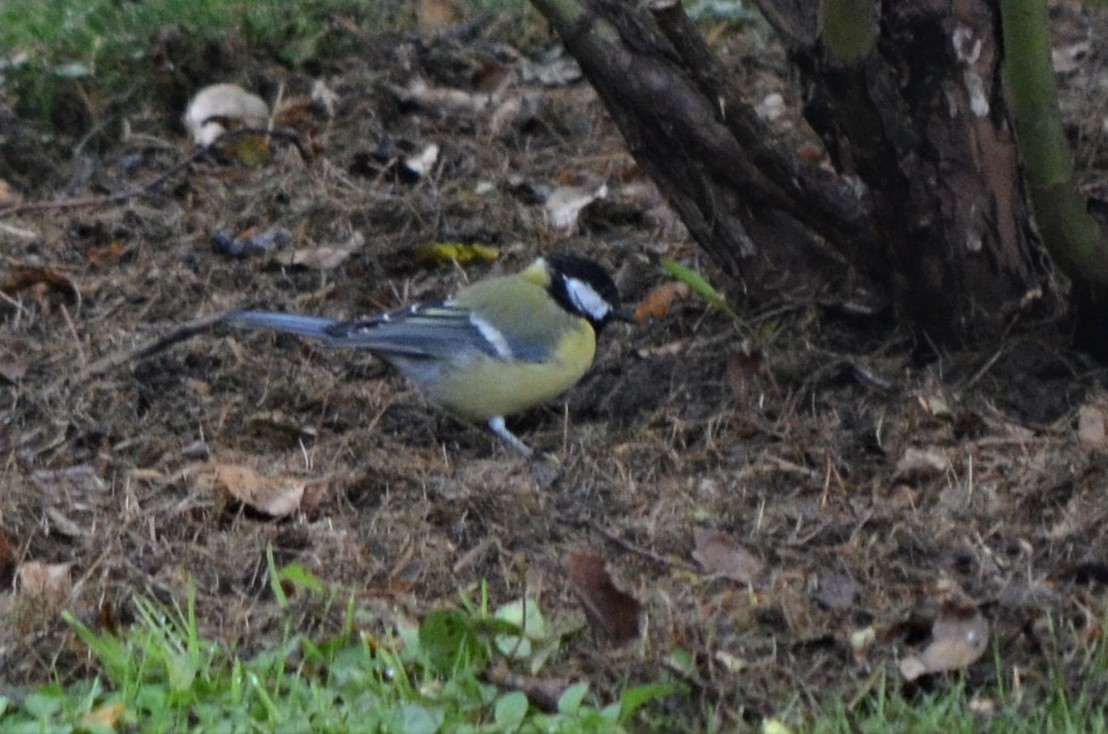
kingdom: Animalia
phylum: Chordata
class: Aves
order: Passeriformes
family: Paridae
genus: Parus
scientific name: Parus major
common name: Great tit
